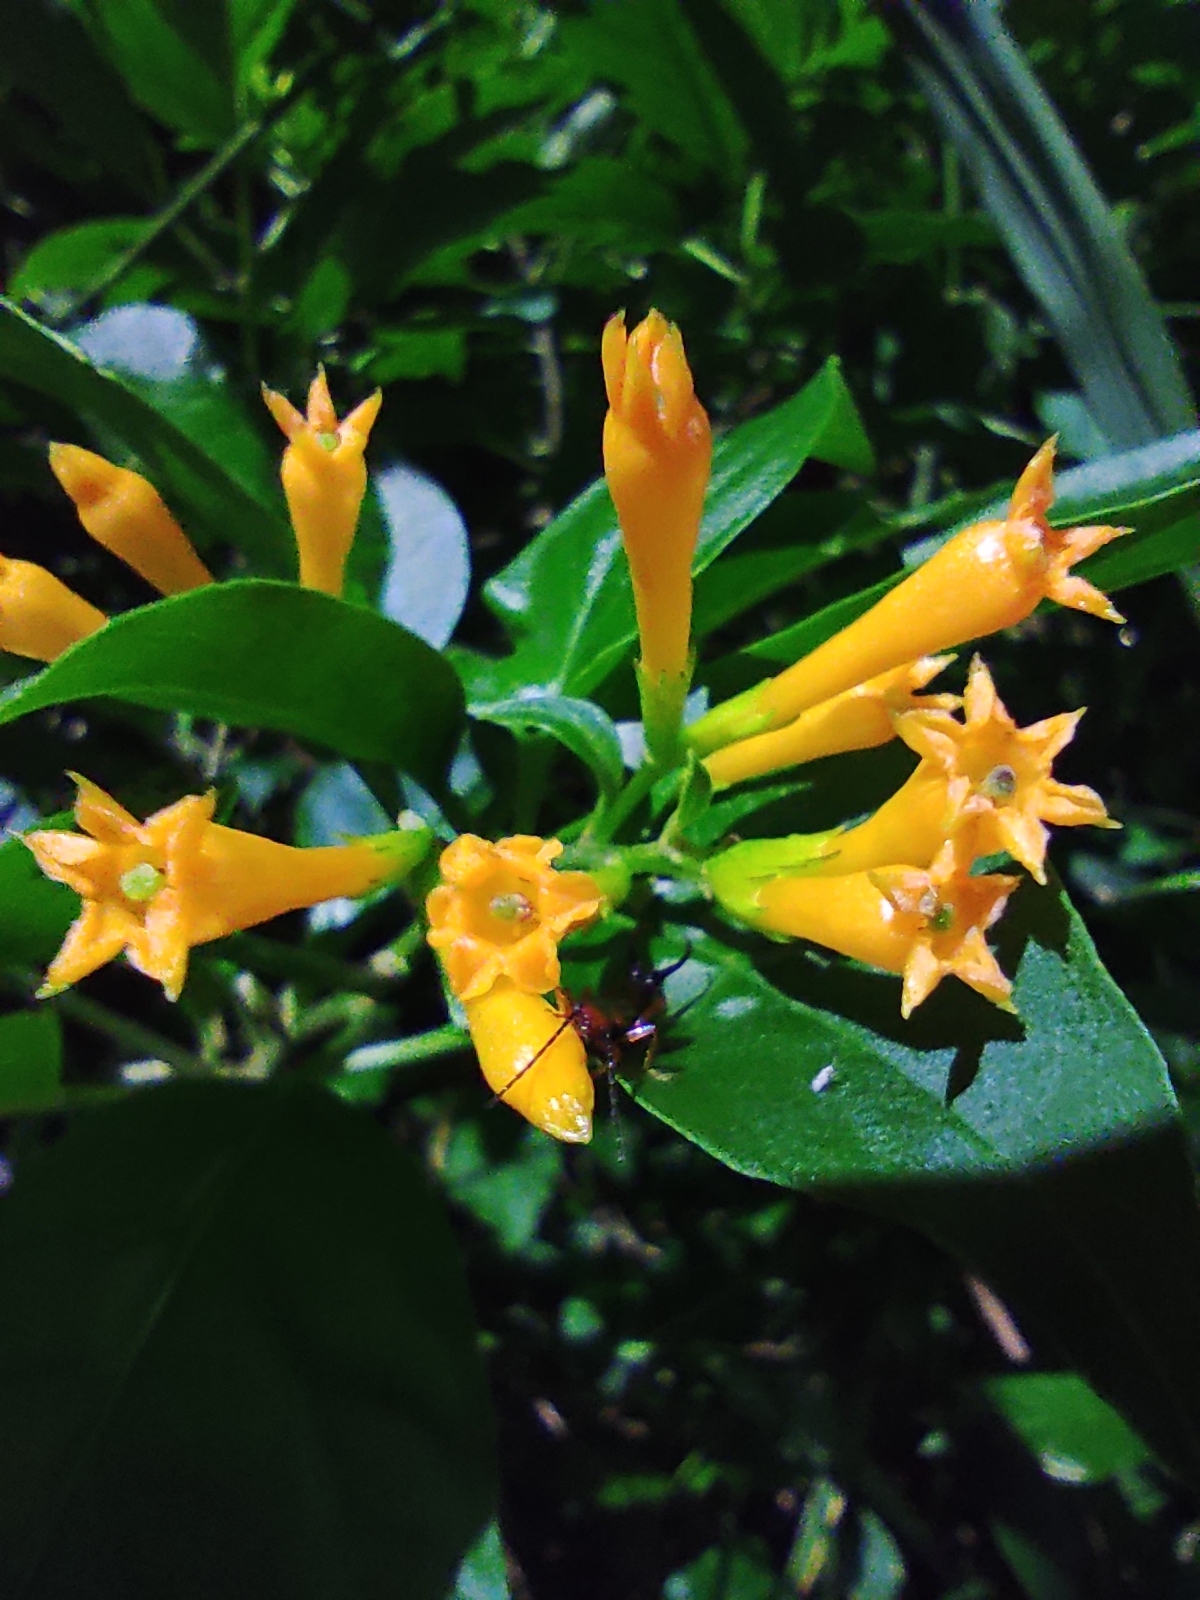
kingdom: Plantae
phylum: Tracheophyta
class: Magnoliopsida
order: Solanales
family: Solanaceae
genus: Cestrum
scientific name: Cestrum aurantiacum
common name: Orange cestrum
